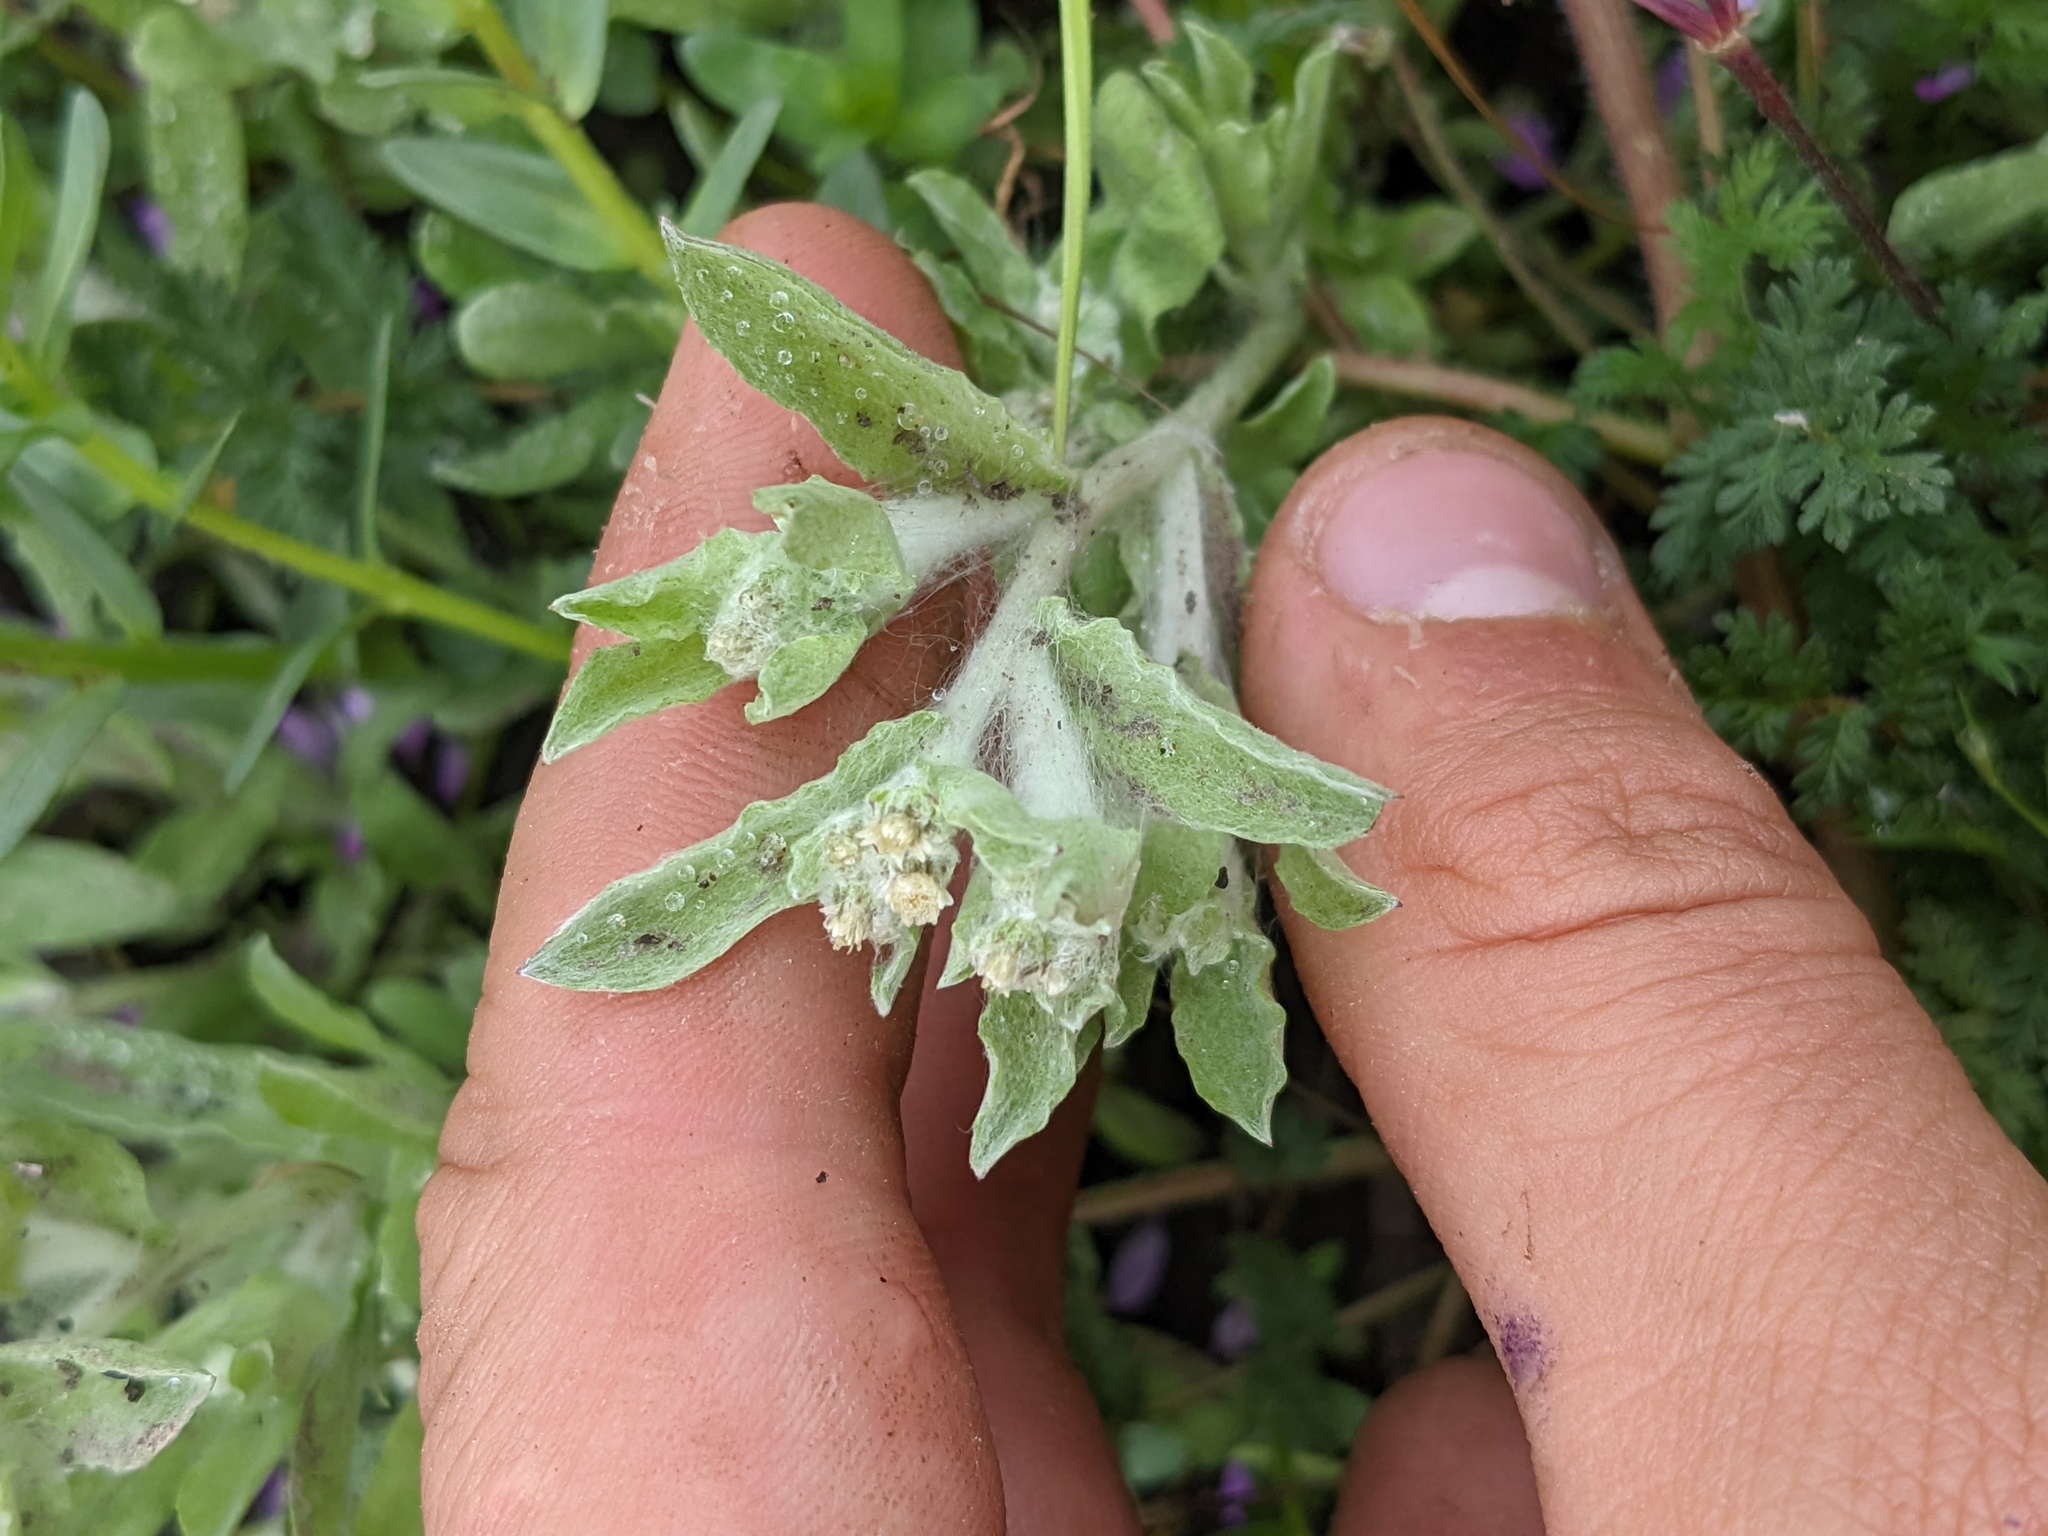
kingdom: Plantae
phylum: Tracheophyta
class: Magnoliopsida
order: Asterales
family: Asteraceae
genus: Gnaphalium
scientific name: Gnaphalium palustre
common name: Western marsh cudweed
